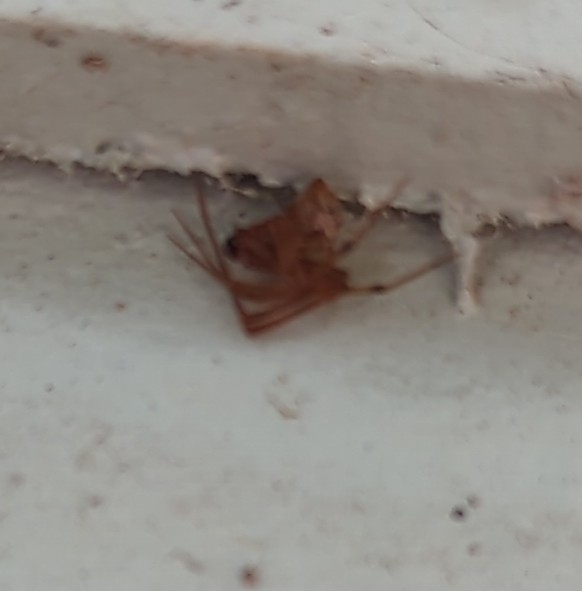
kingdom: Animalia
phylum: Arthropoda
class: Arachnida
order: Araneae
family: Theridiidae
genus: Parasteatoda
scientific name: Parasteatoda tepidariorum
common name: Common house spider
